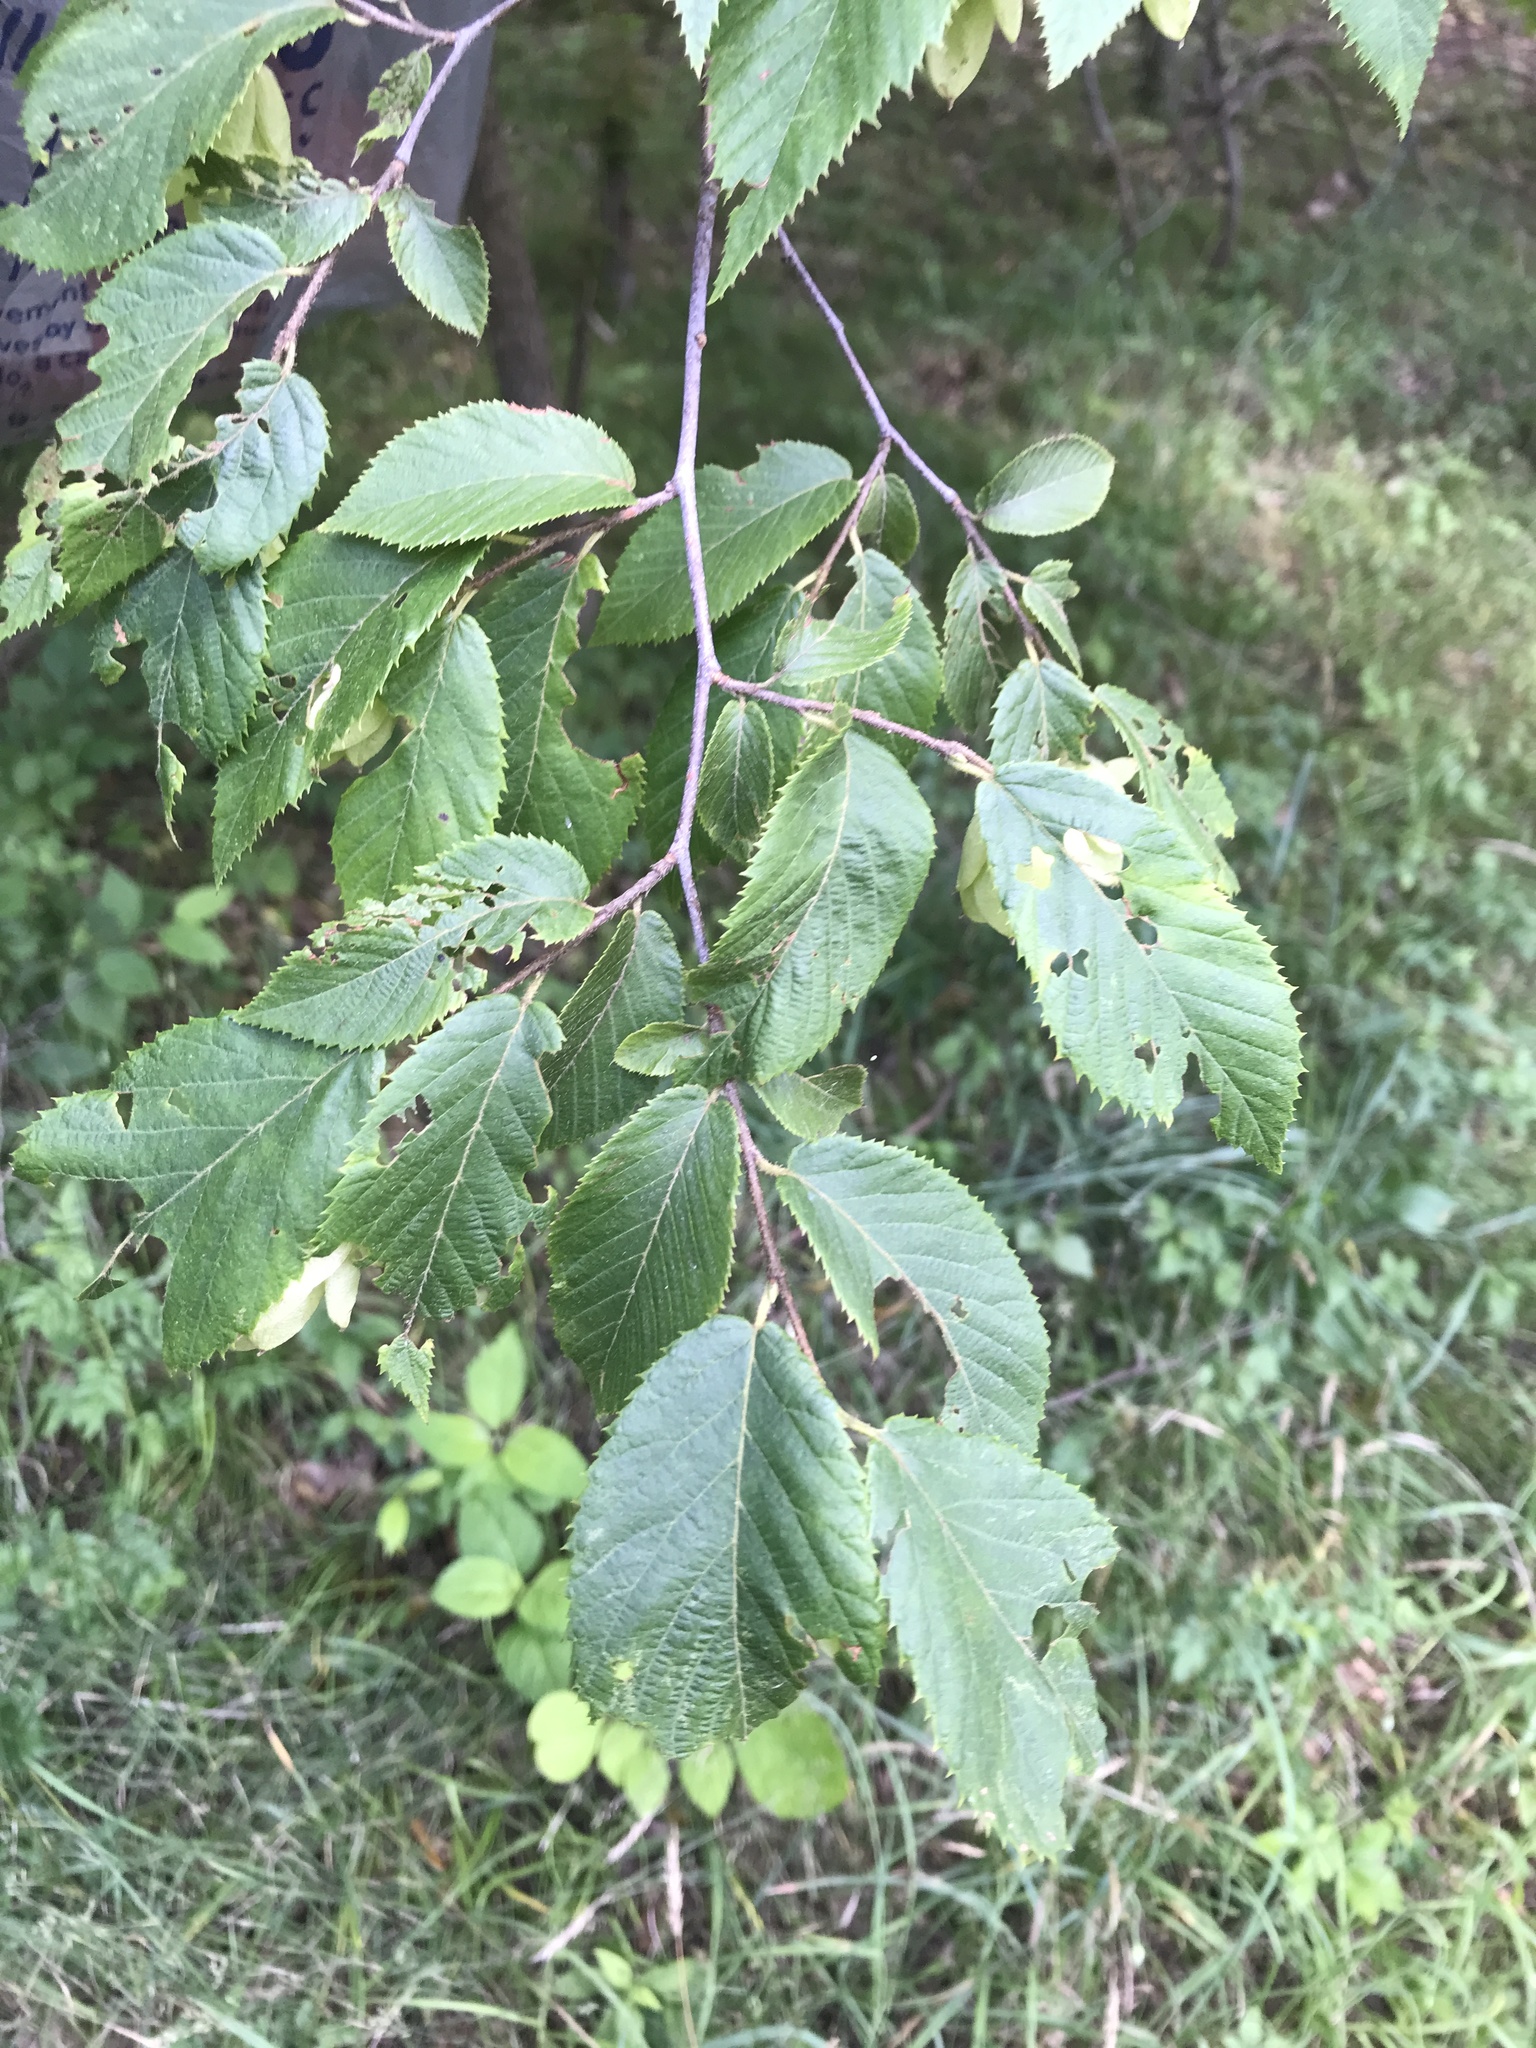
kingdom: Plantae
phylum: Tracheophyta
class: Magnoliopsida
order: Fagales
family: Betulaceae
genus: Ostrya
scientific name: Ostrya virginiana
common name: Ironwood
